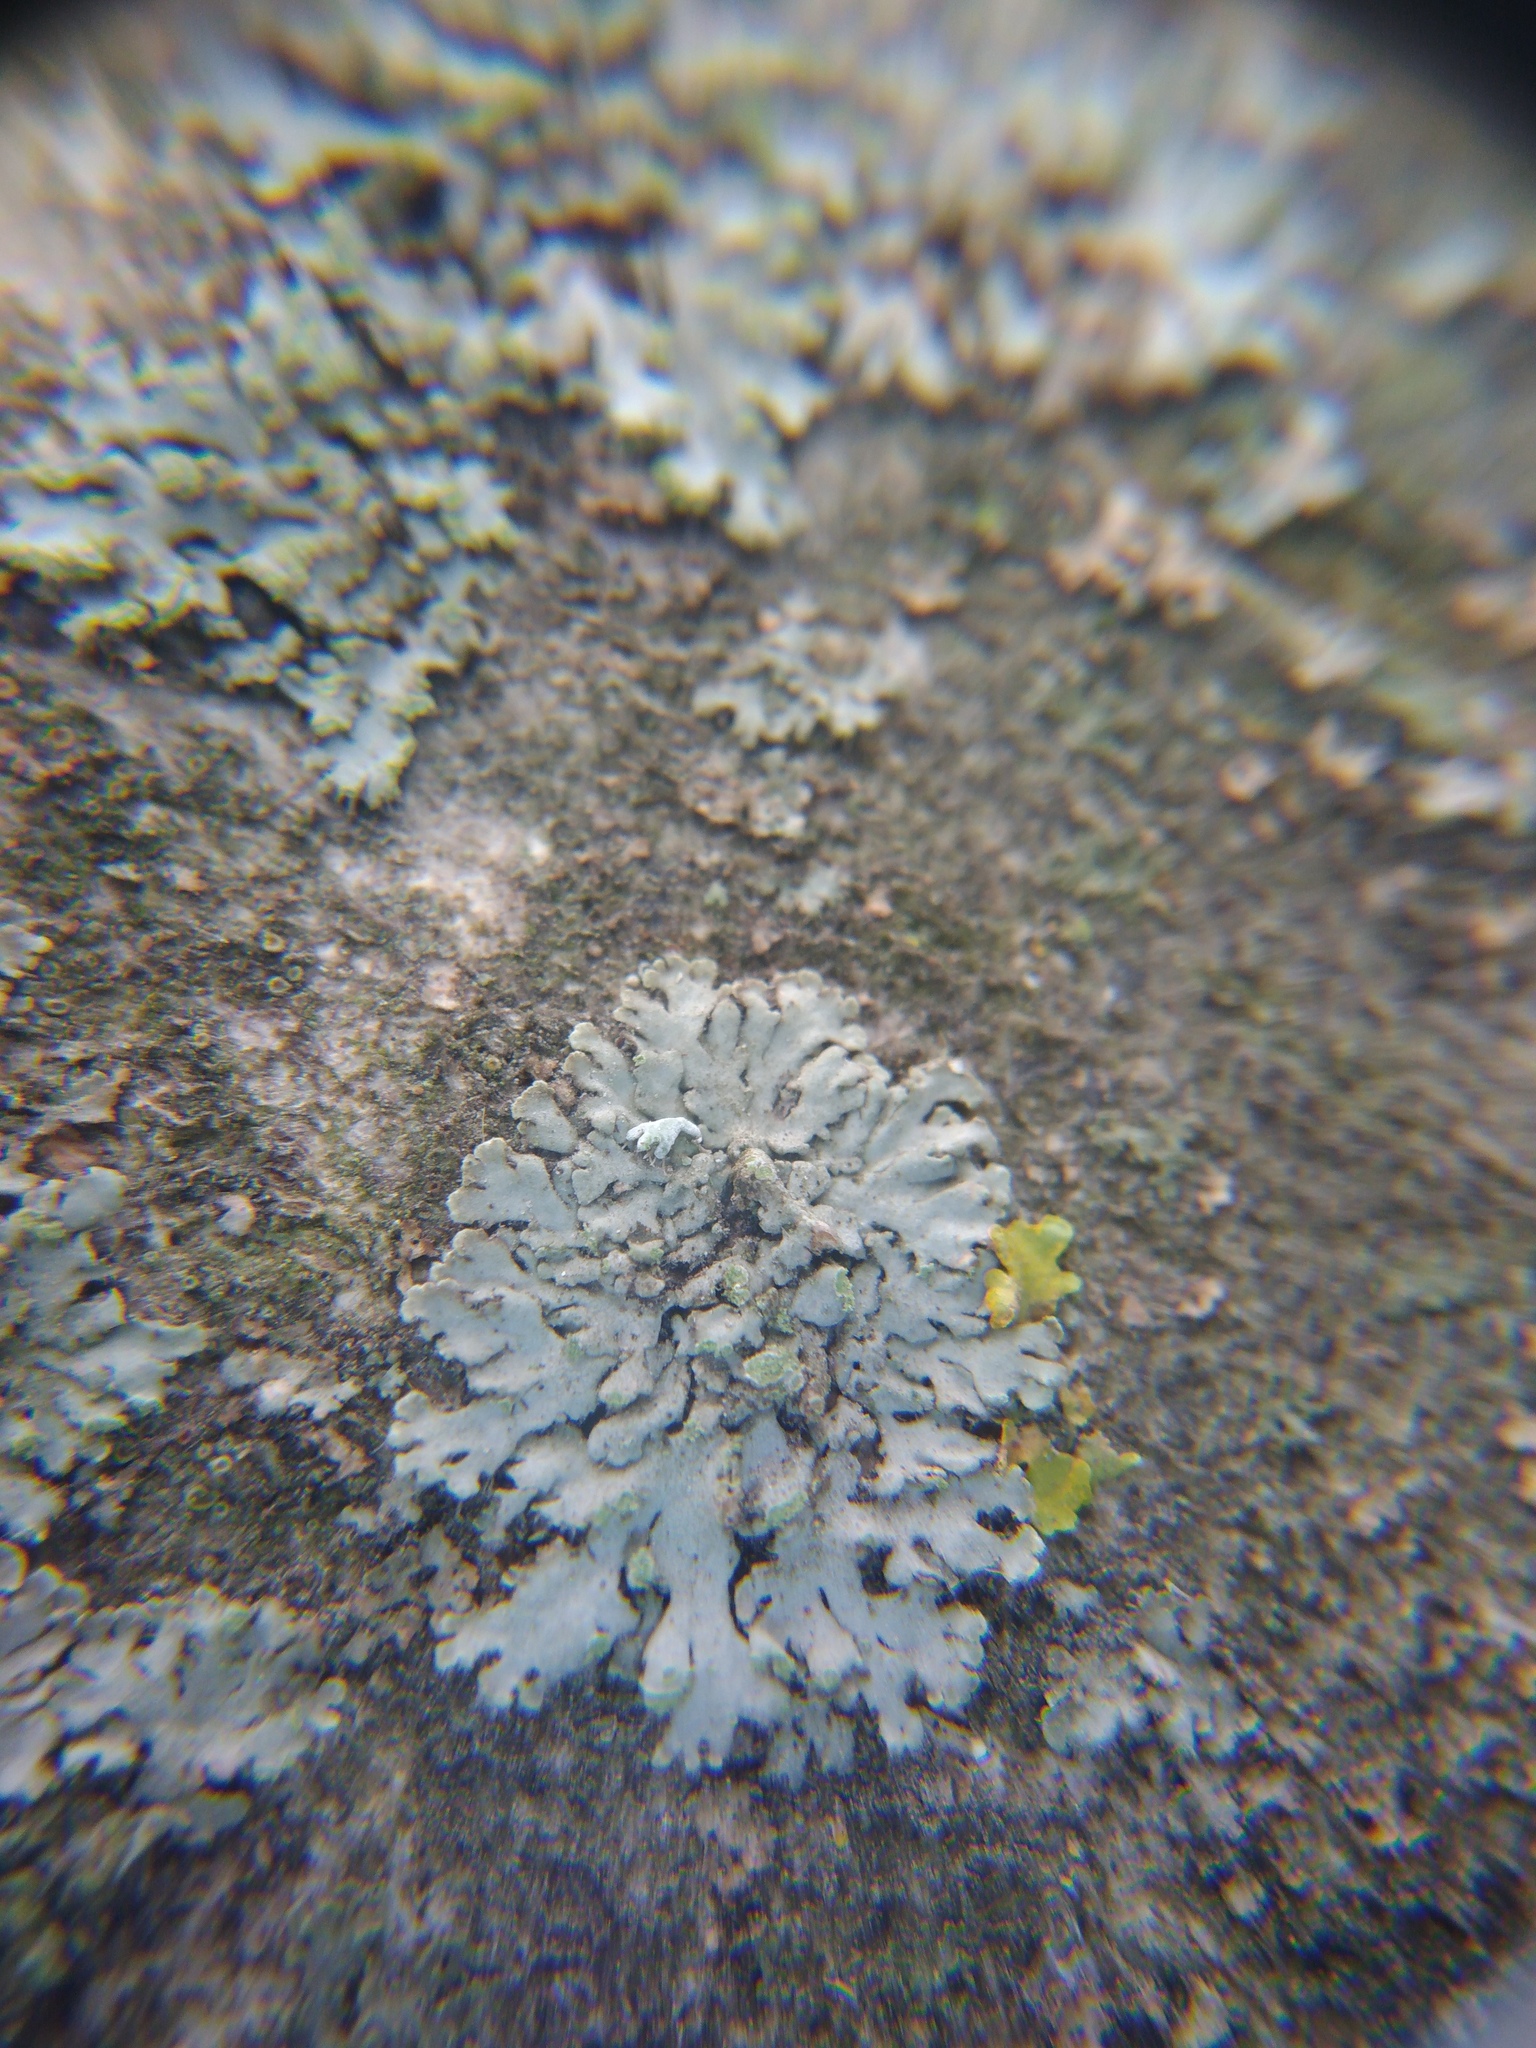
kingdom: Fungi
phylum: Ascomycota
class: Lecanoromycetes
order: Caliciales
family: Physciaceae
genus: Phaeophyscia
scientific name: Phaeophyscia orbicularis
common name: Mealy shadow lichen
